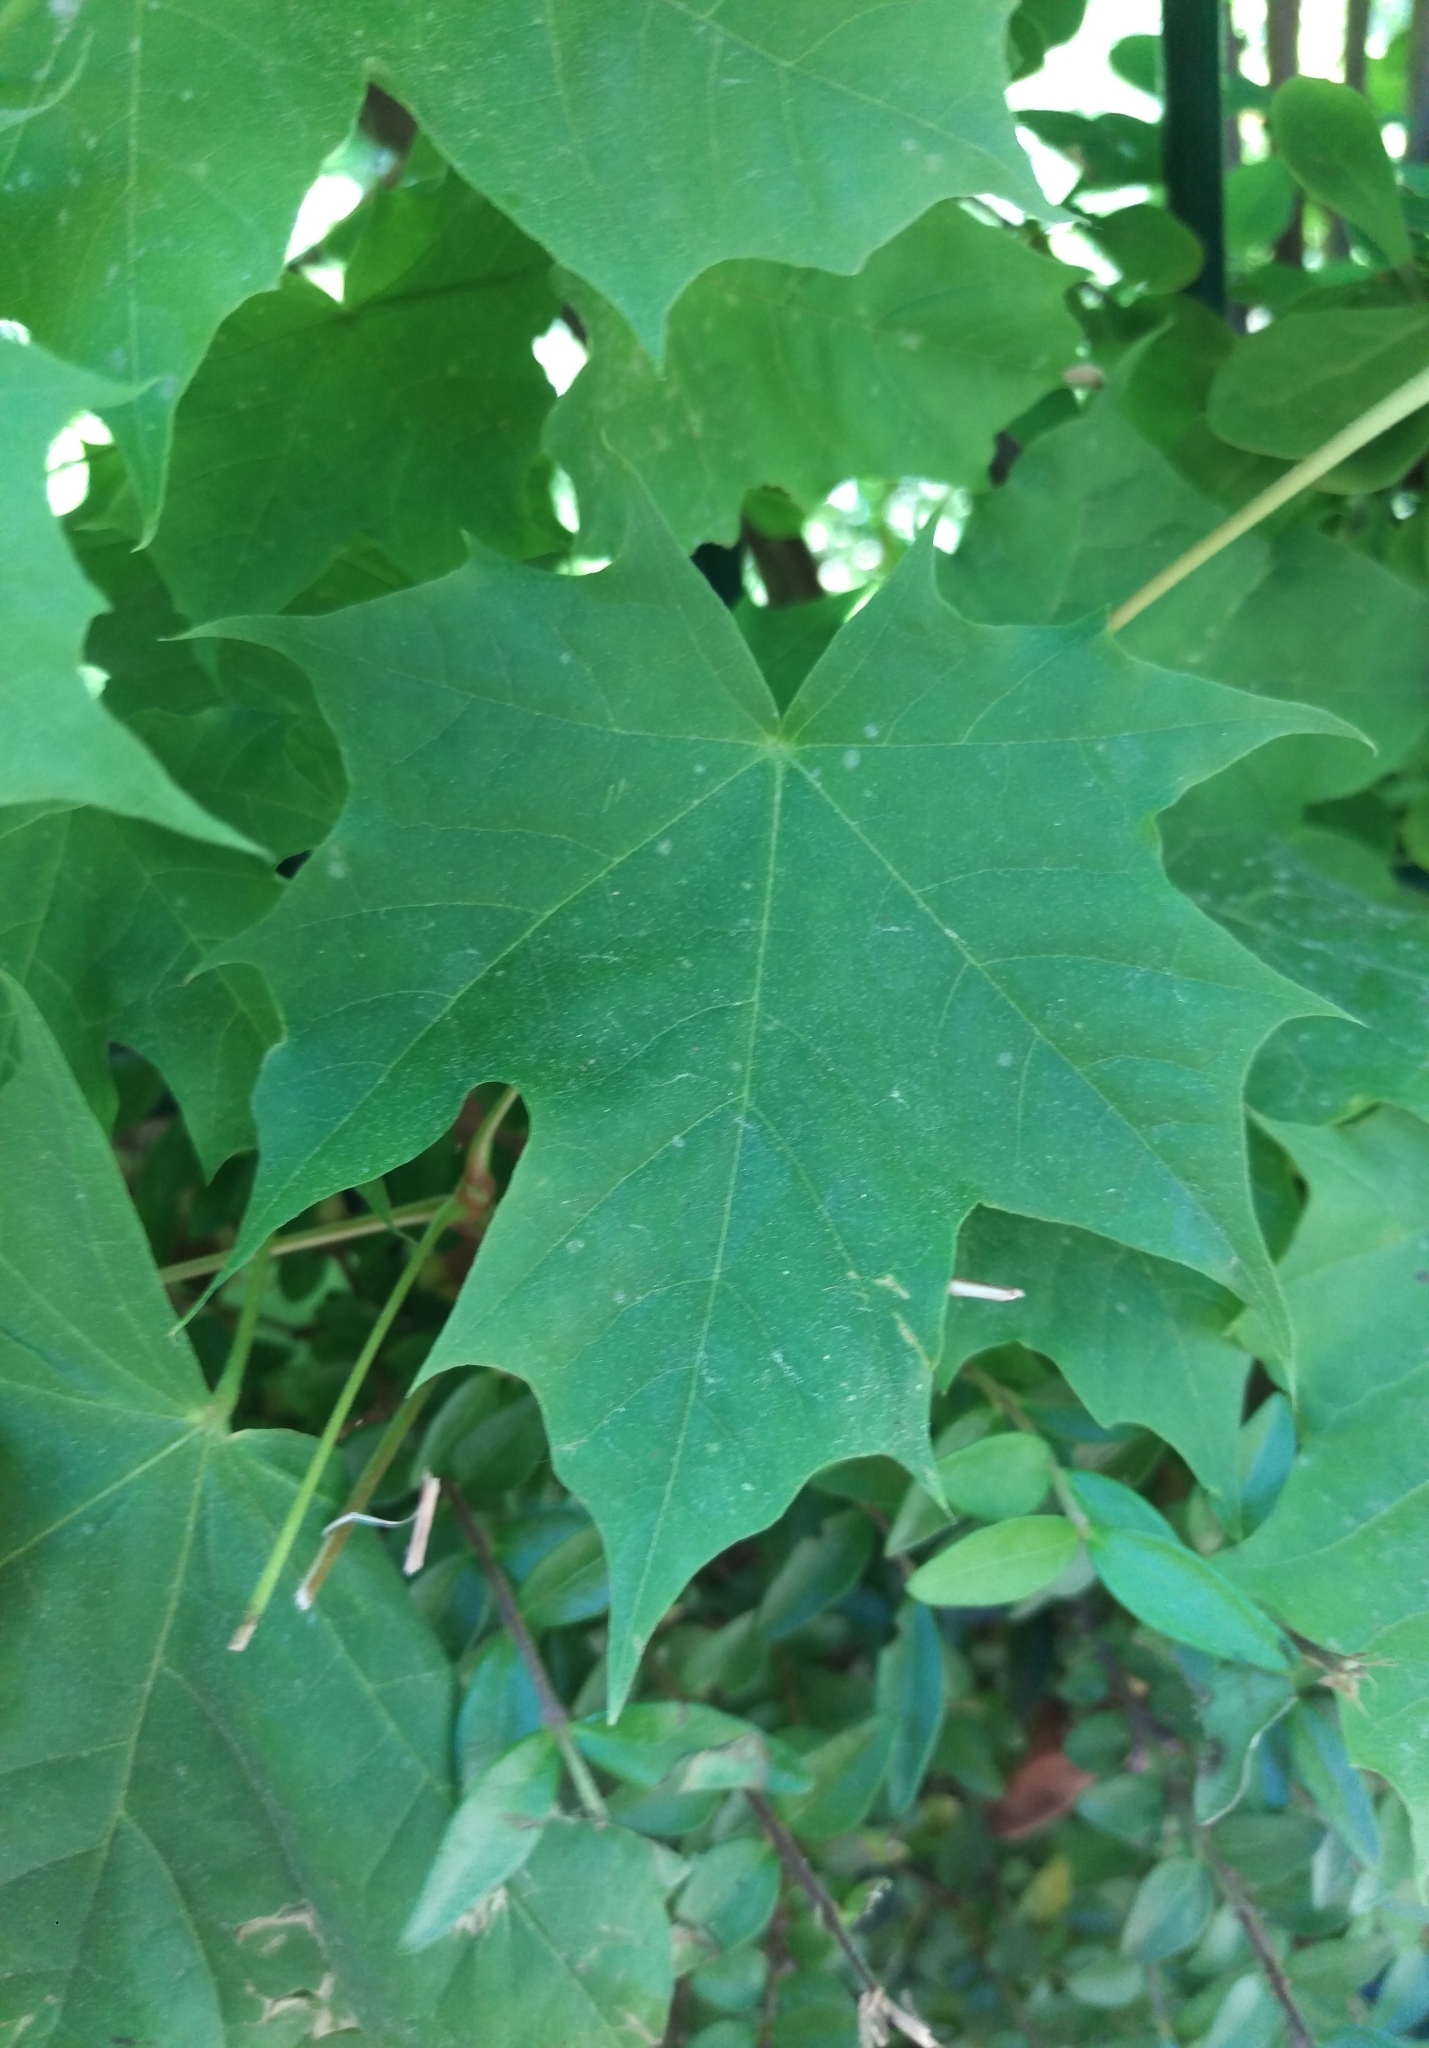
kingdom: Plantae
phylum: Tracheophyta
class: Magnoliopsida
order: Sapindales
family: Sapindaceae
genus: Acer
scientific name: Acer platanoides
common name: Norway maple
